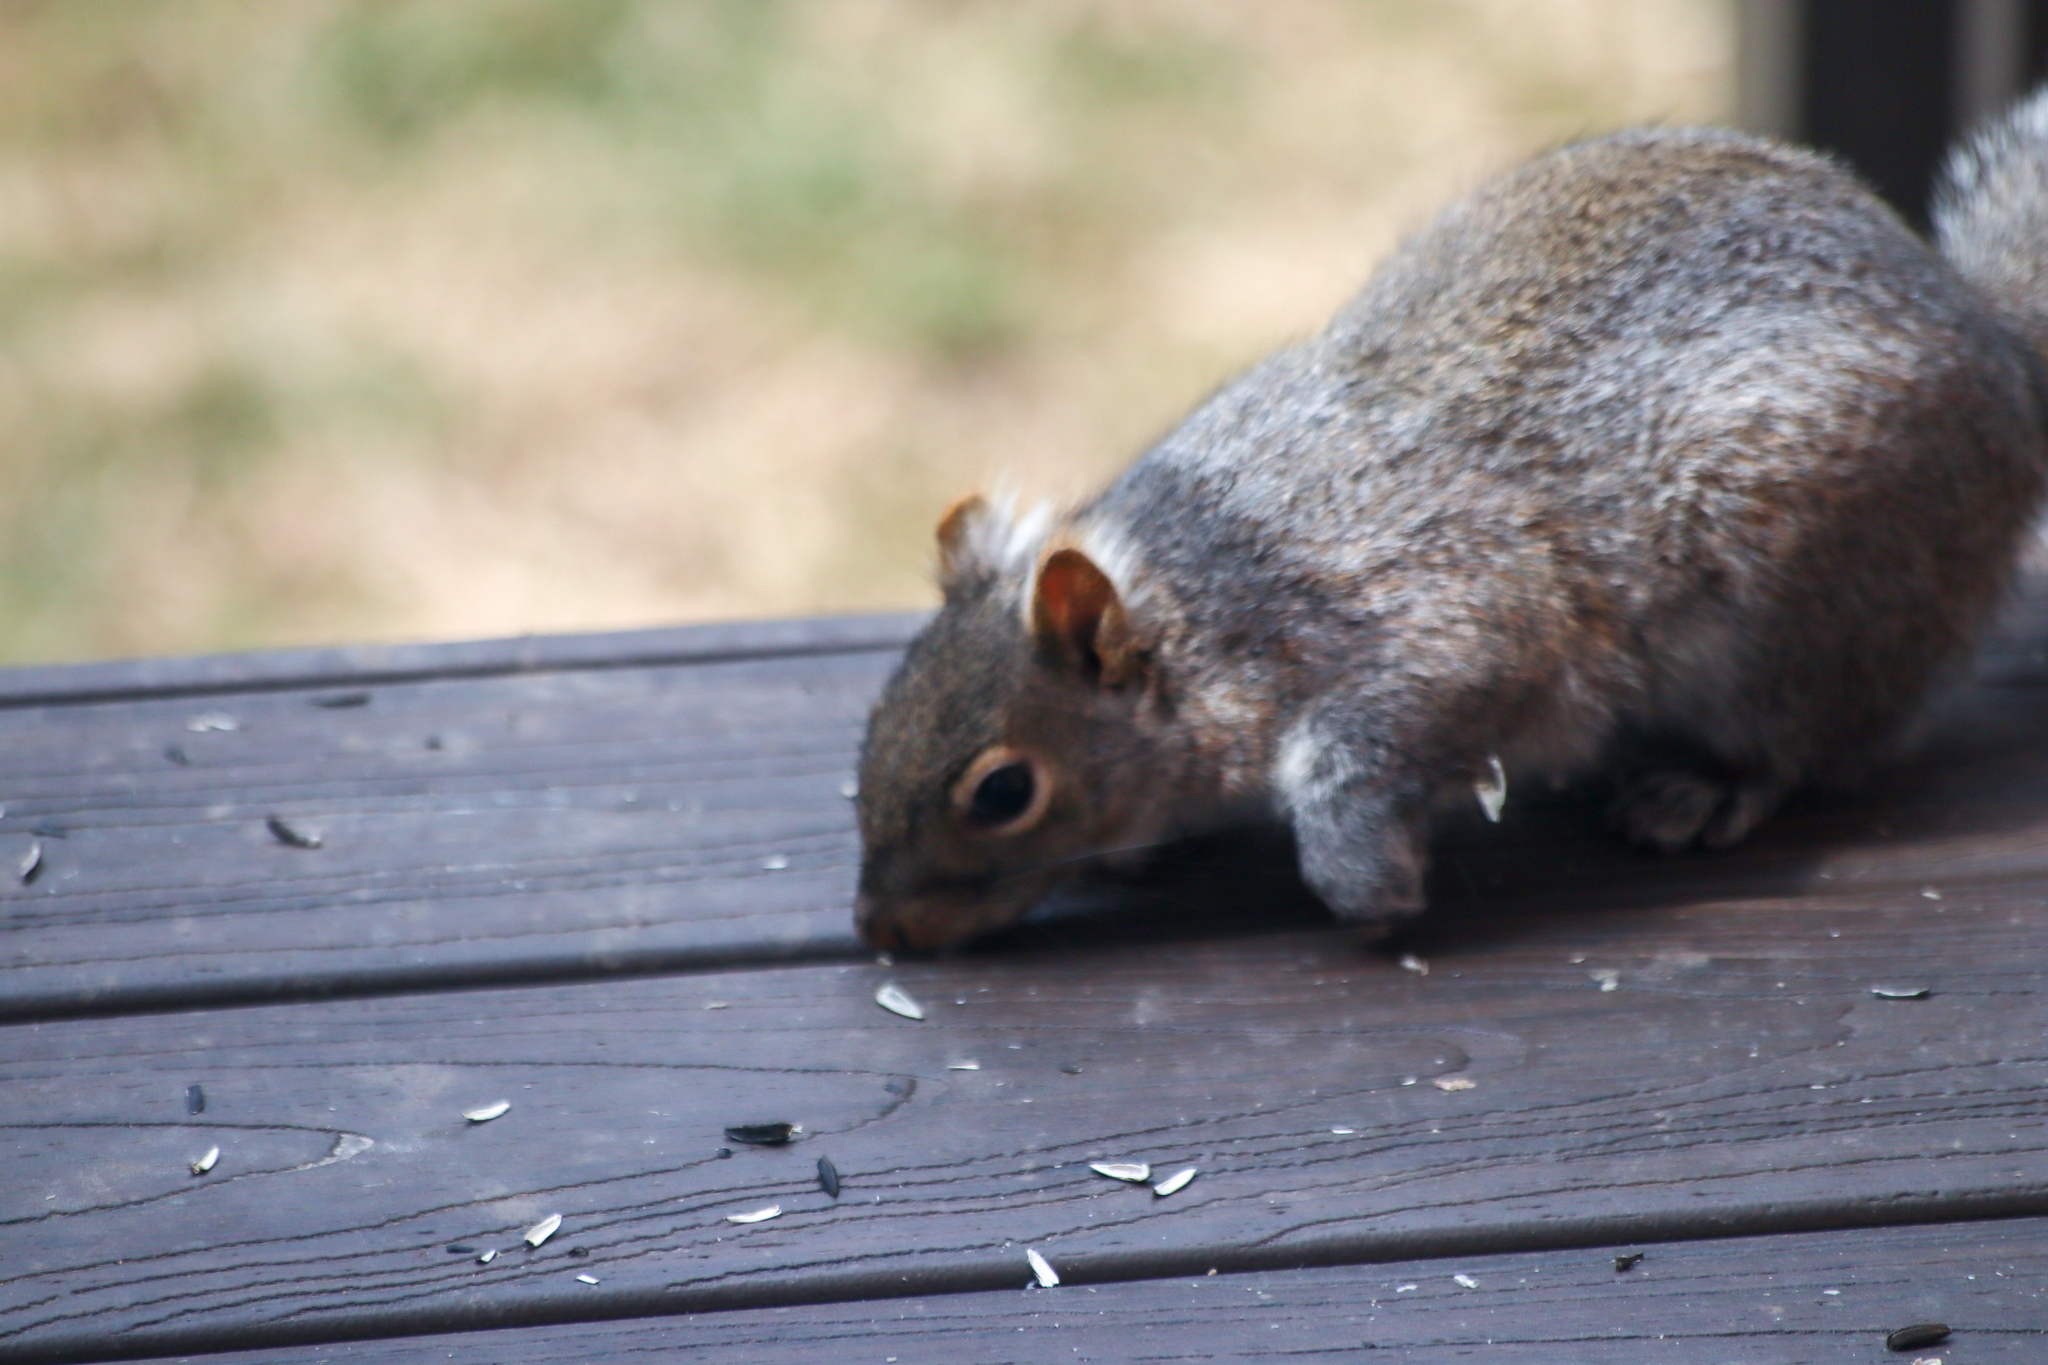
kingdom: Animalia
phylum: Chordata
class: Mammalia
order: Rodentia
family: Sciuridae
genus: Sciurus
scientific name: Sciurus carolinensis
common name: Eastern gray squirrel
